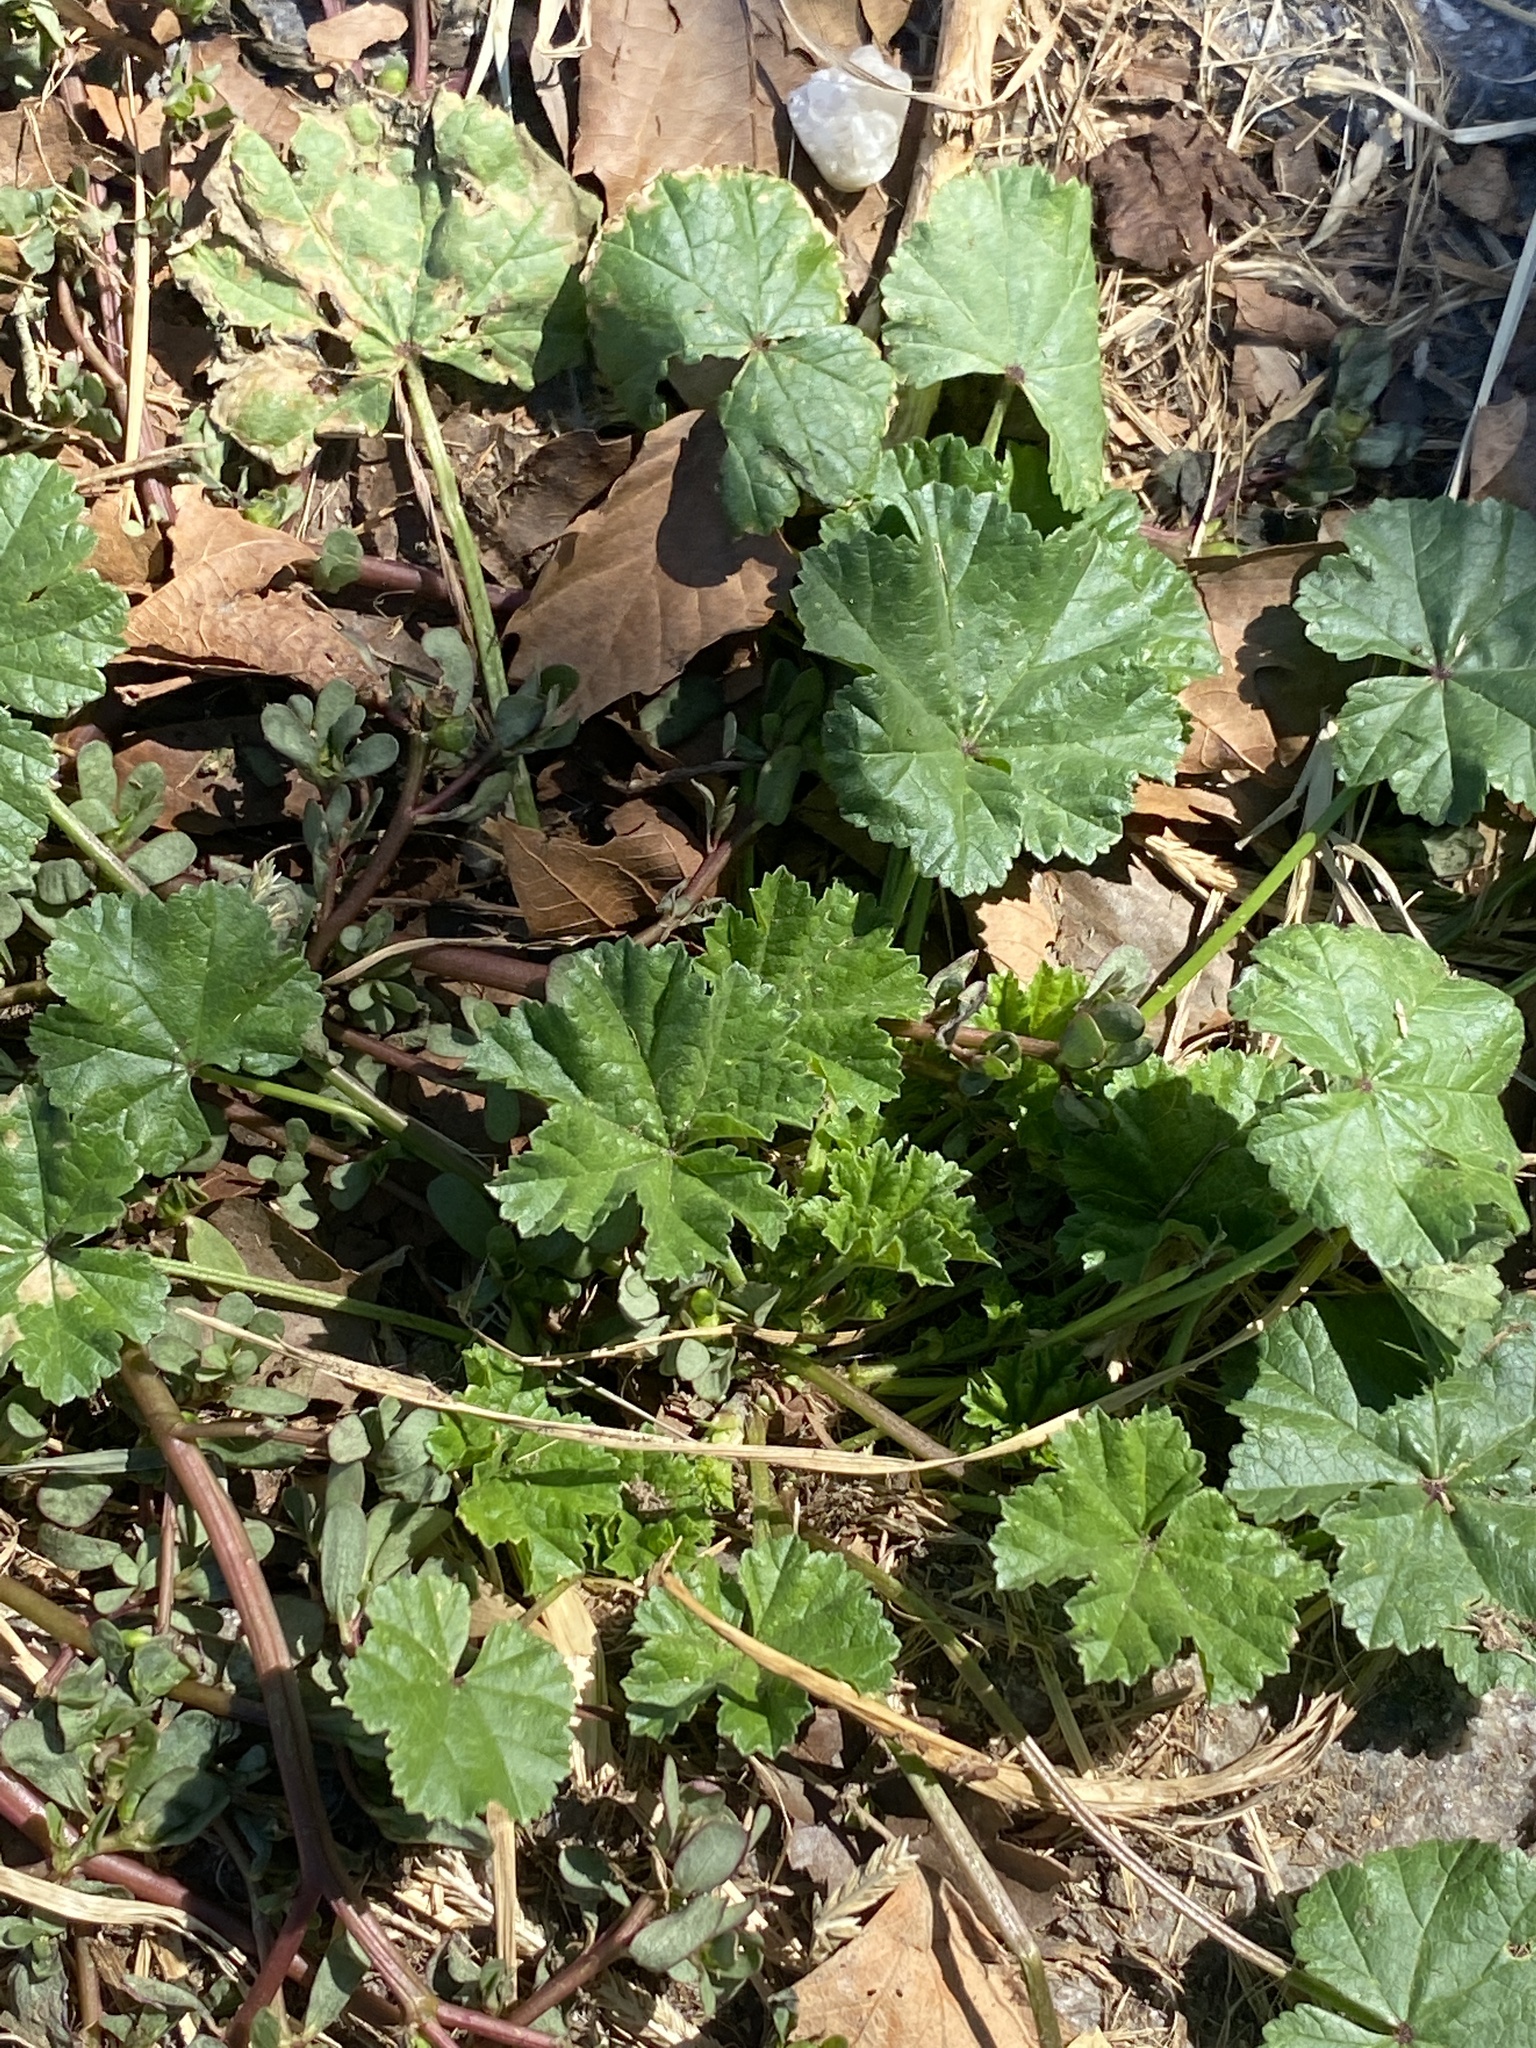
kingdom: Plantae
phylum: Tracheophyta
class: Magnoliopsida
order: Malvales
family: Malvaceae
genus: Malva
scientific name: Malva neglecta
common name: Common mallow
